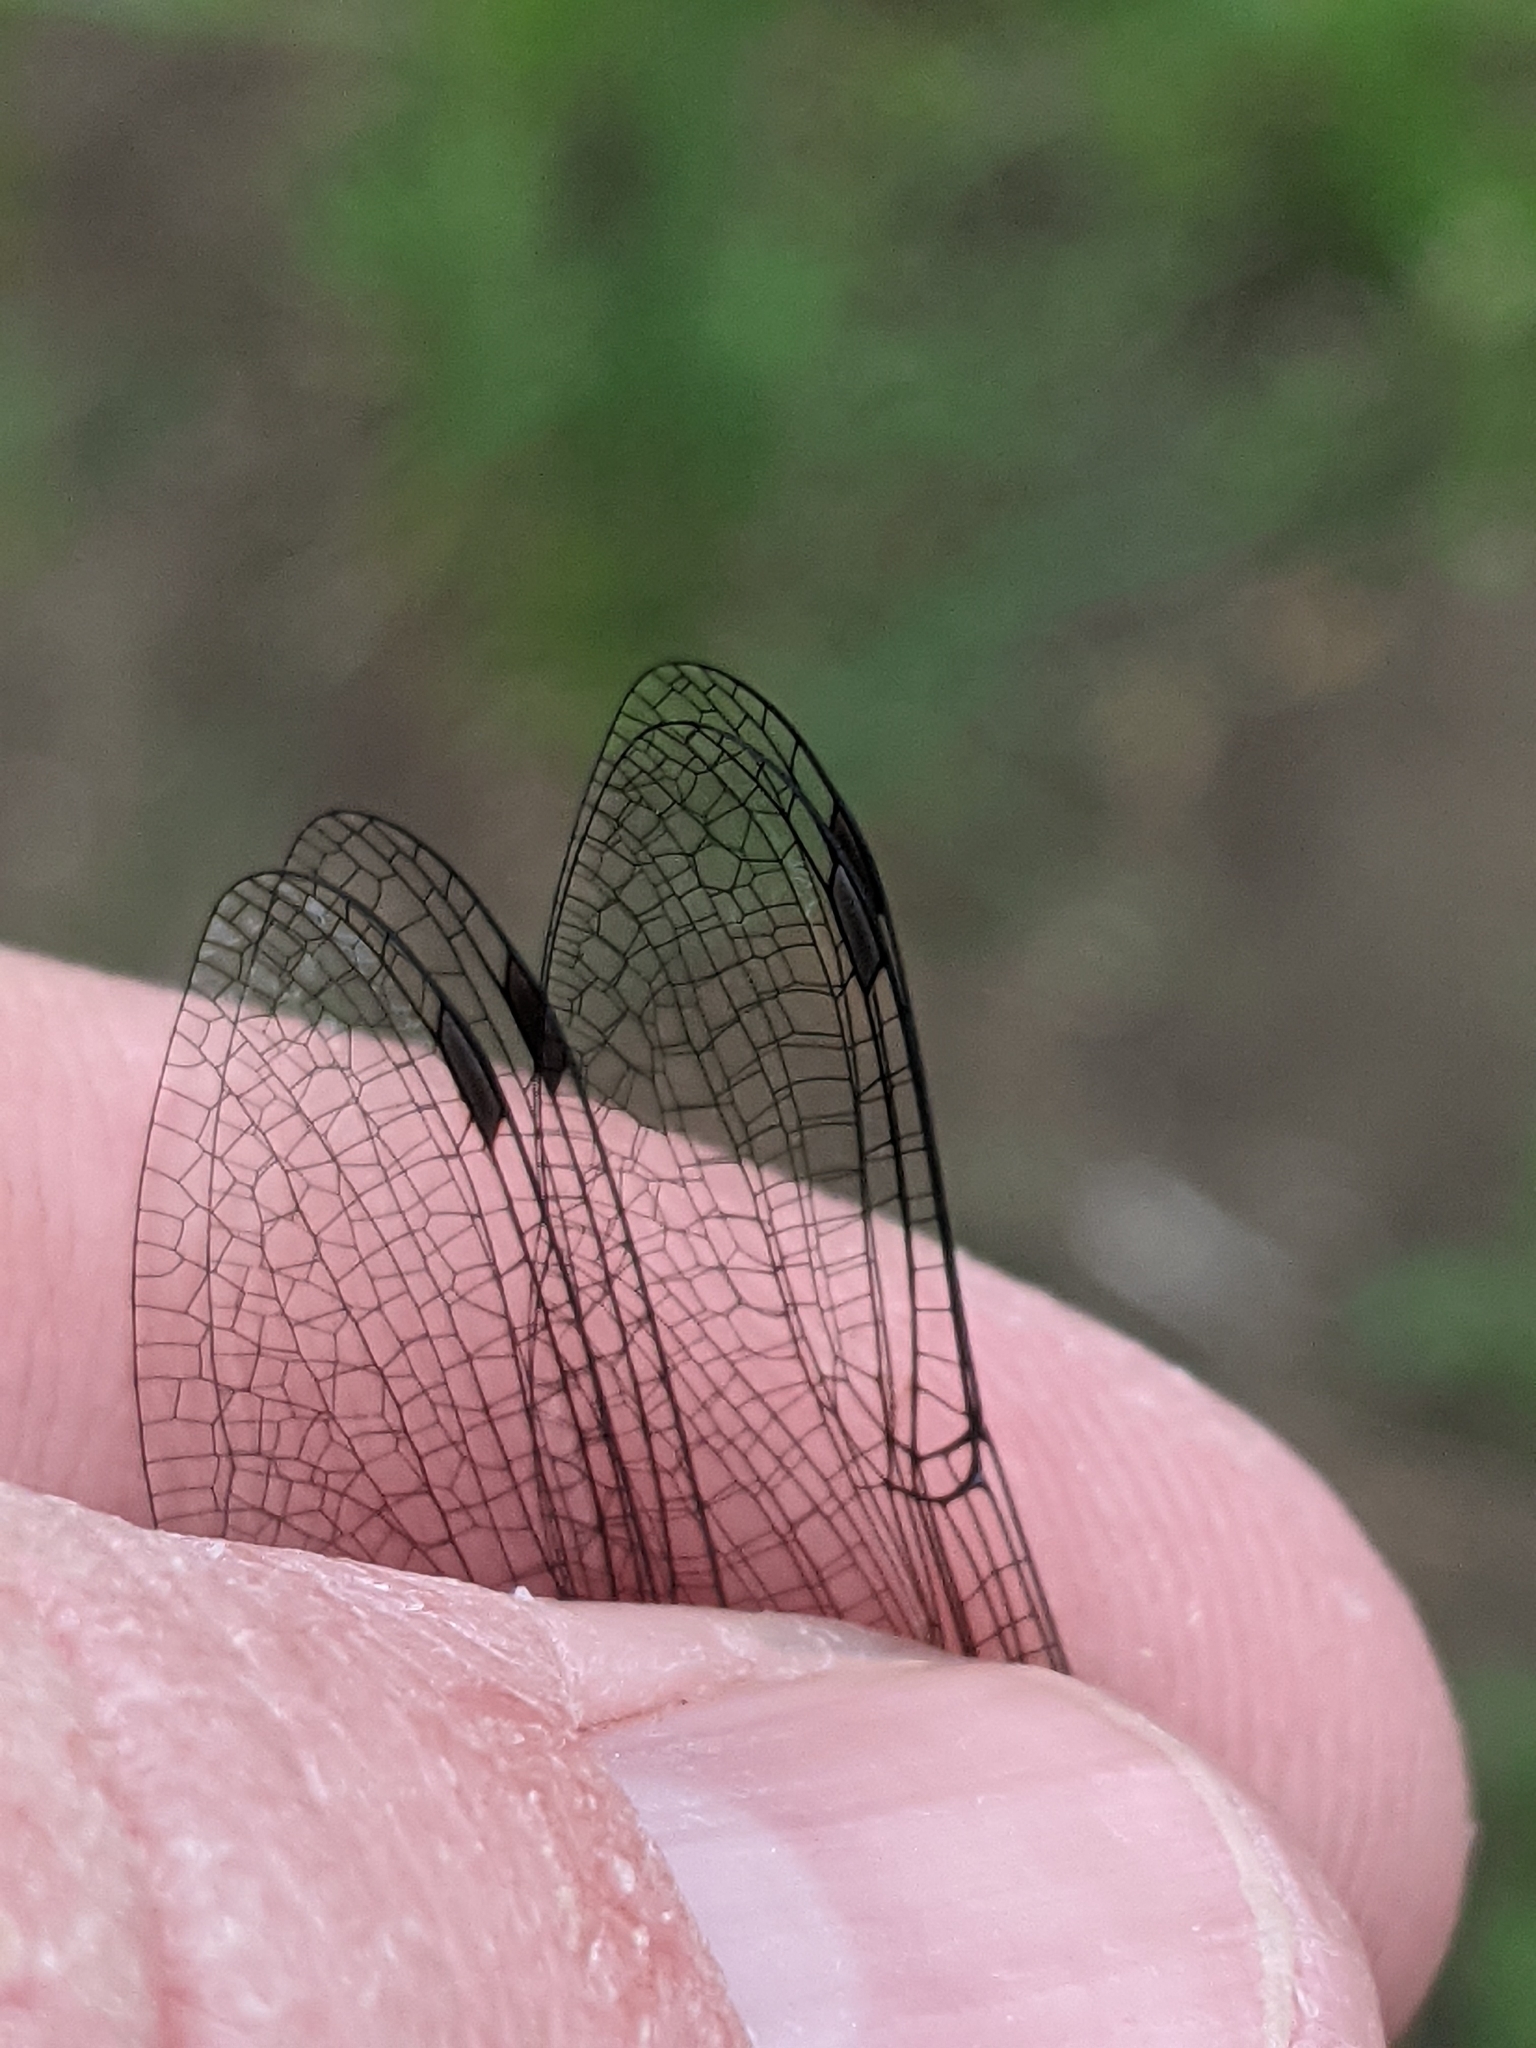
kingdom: Animalia
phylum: Arthropoda
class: Insecta
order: Odonata
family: Corduliidae
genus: Epitheca
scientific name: Epitheca cynosura
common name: Common baskettail
